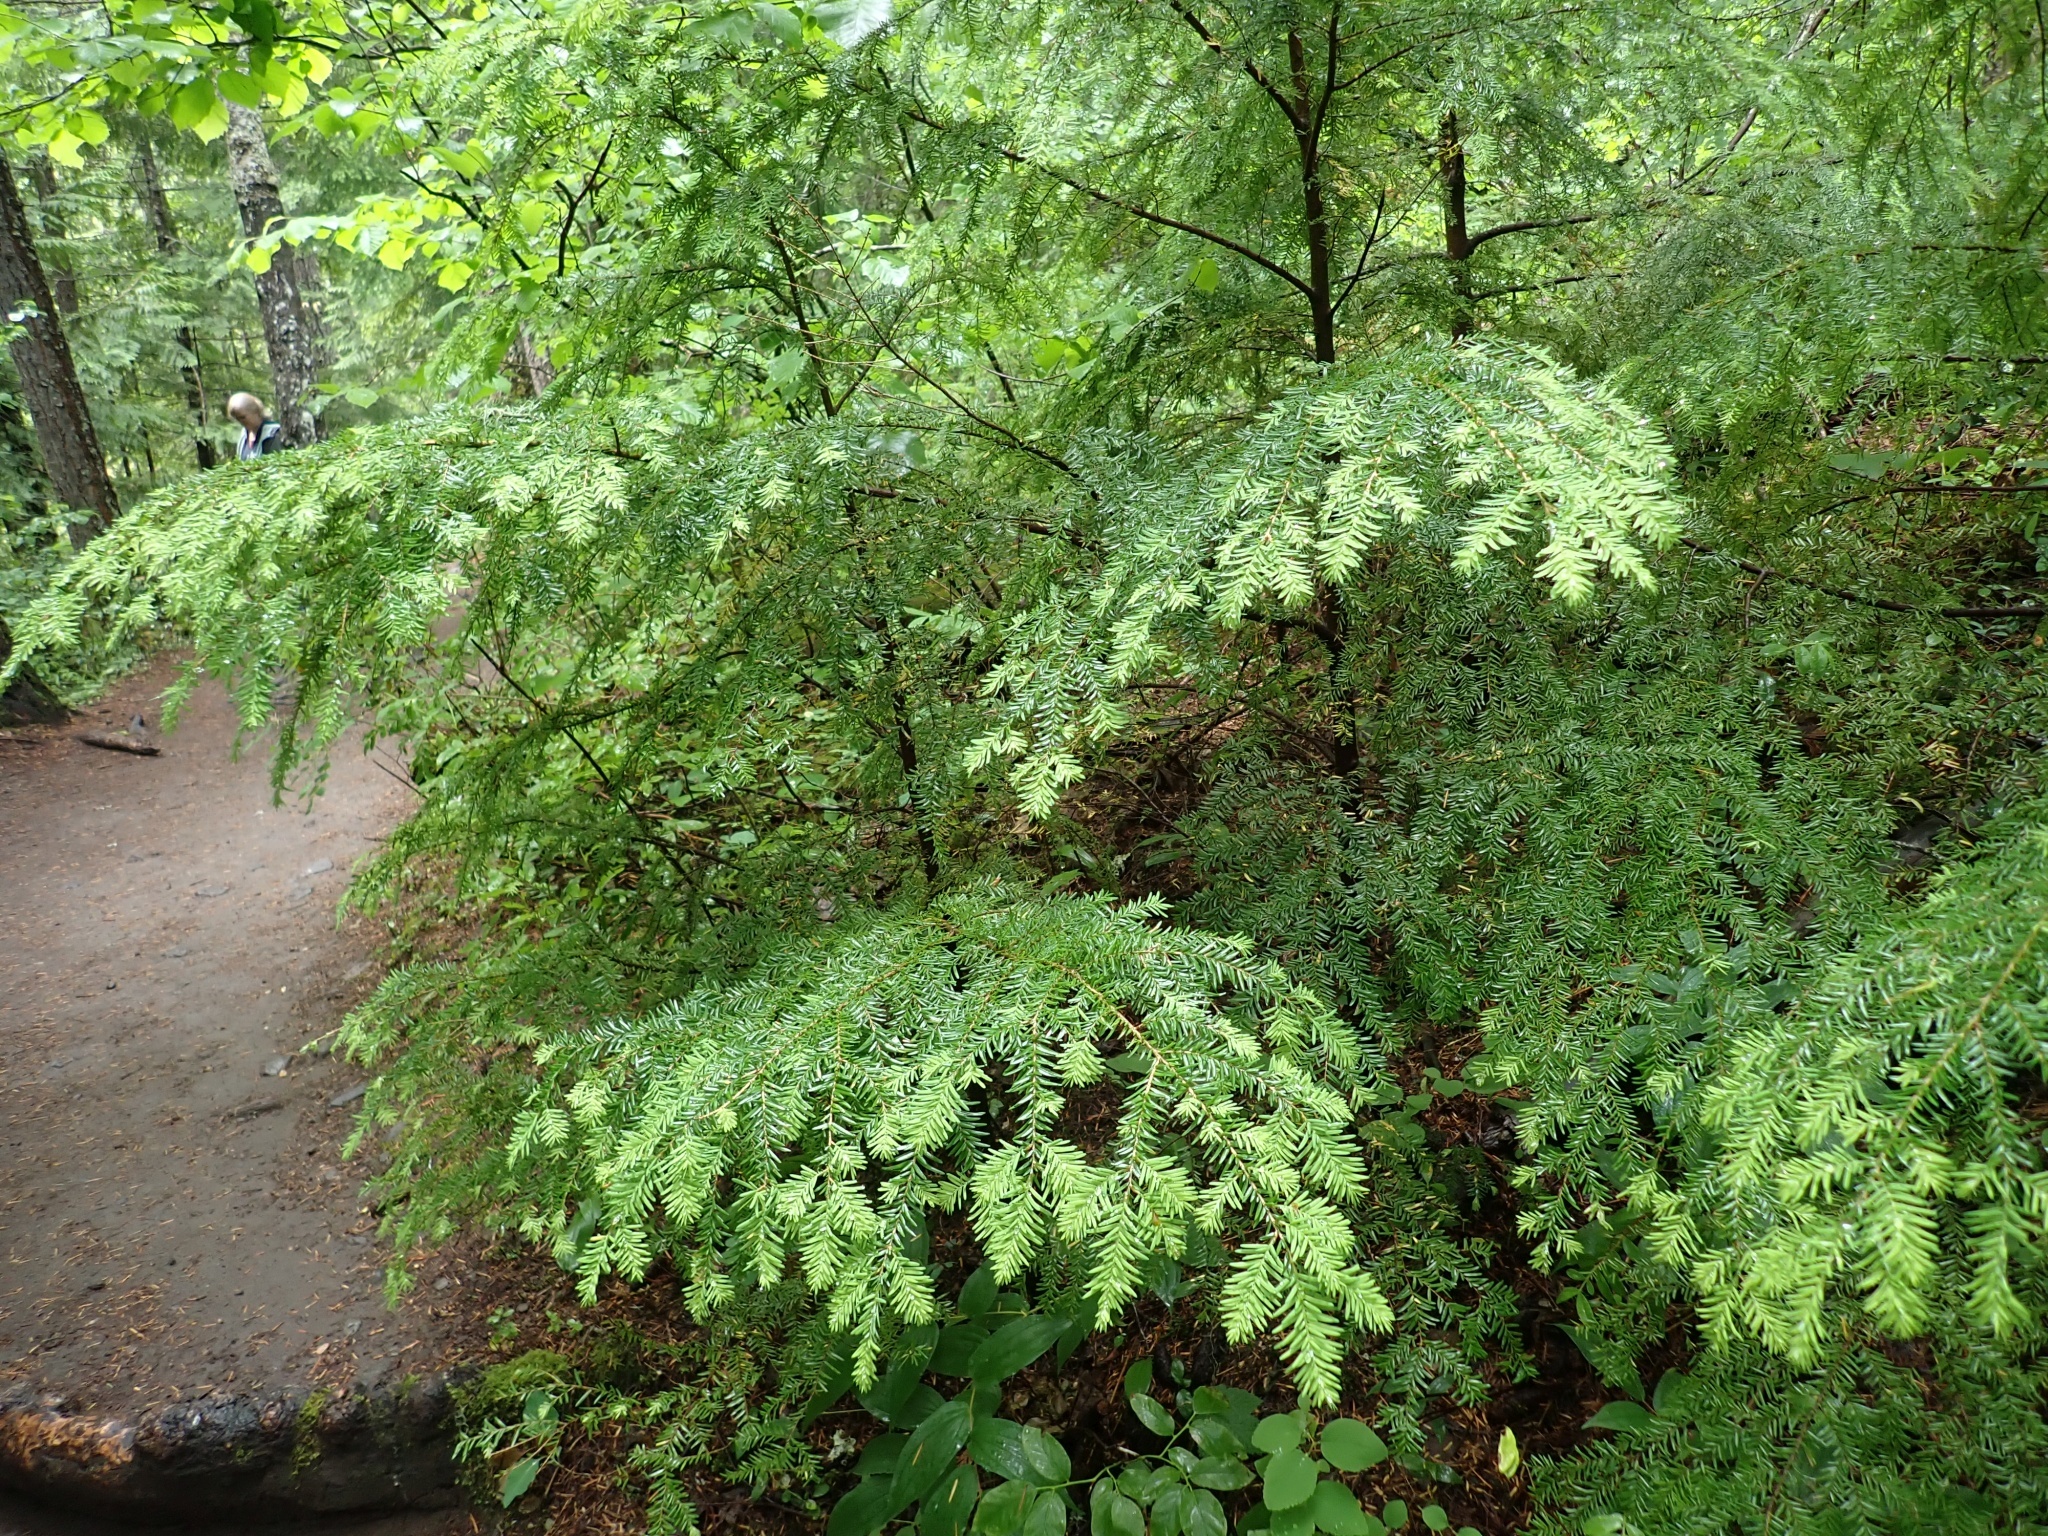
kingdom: Plantae
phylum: Tracheophyta
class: Pinopsida
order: Pinales
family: Pinaceae
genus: Tsuga
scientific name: Tsuga heterophylla
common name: Western hemlock
